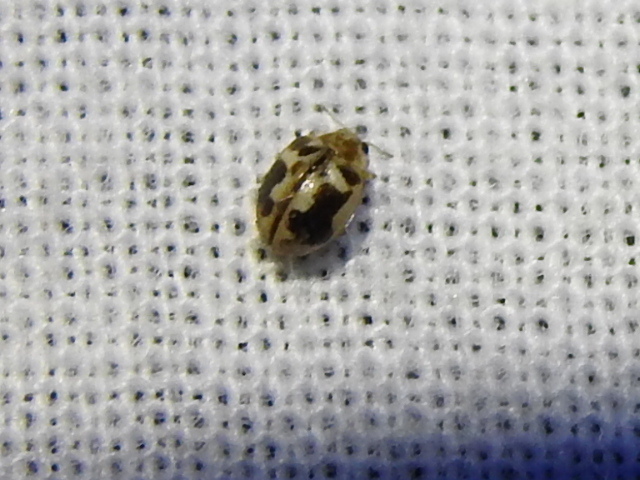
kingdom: Animalia
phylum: Arthropoda
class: Insecta
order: Coleoptera
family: Coccinellidae
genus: Psyllobora
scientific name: Psyllobora renifer
